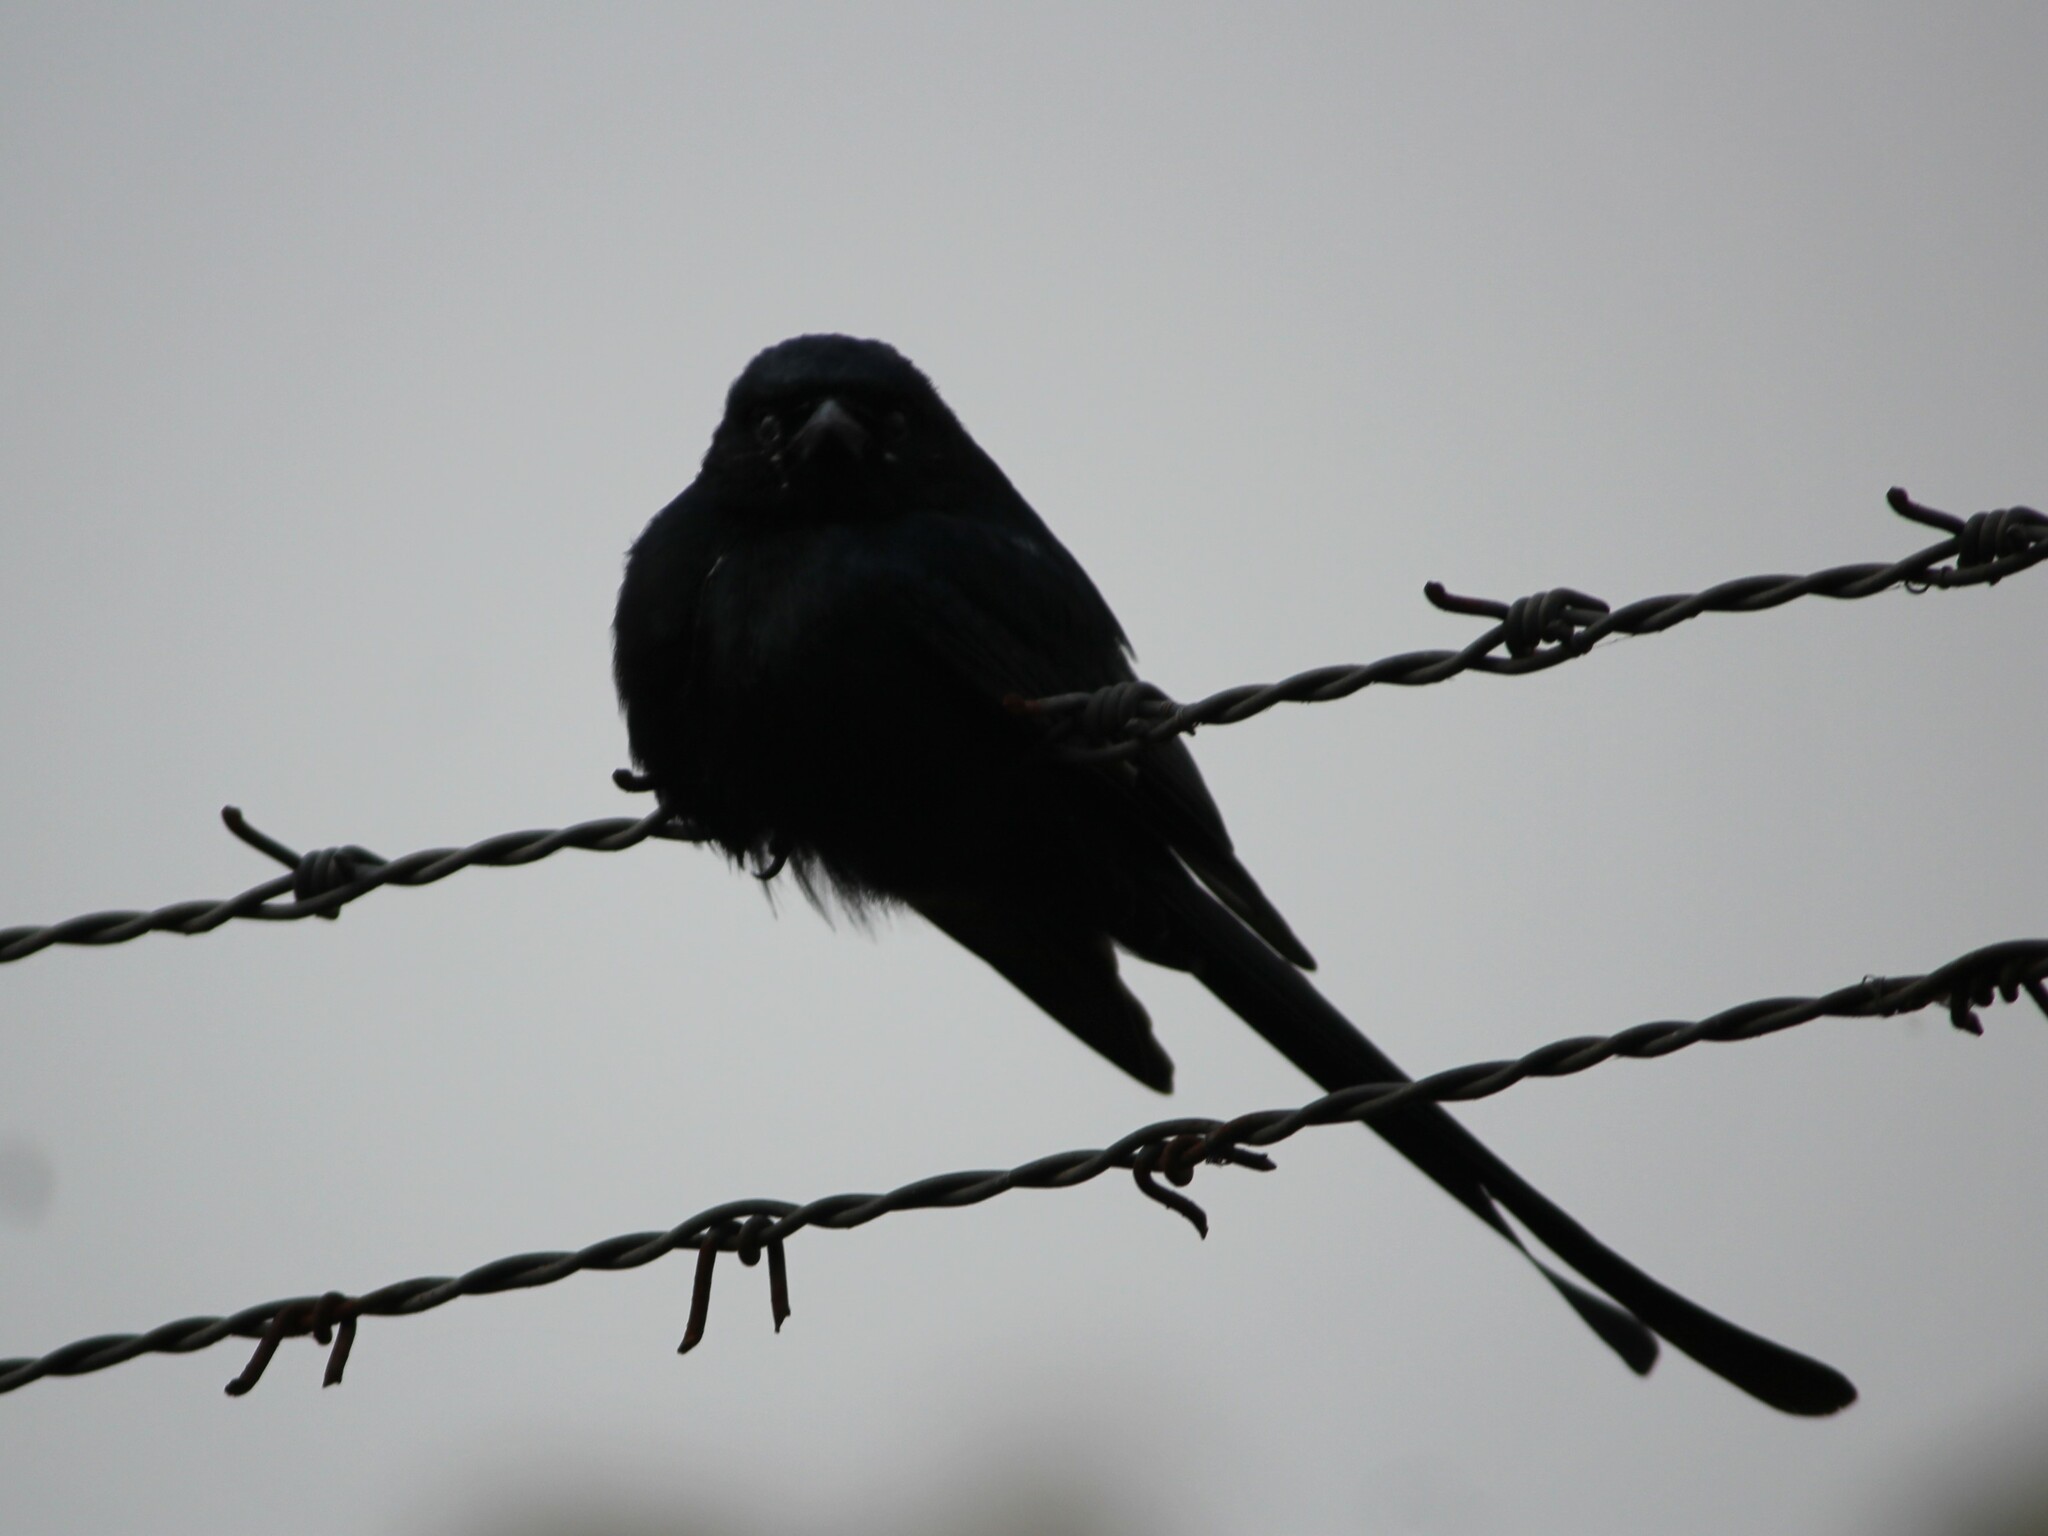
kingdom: Animalia
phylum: Chordata
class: Aves
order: Passeriformes
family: Dicruridae
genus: Dicrurus
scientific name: Dicrurus macrocercus
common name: Black drongo
